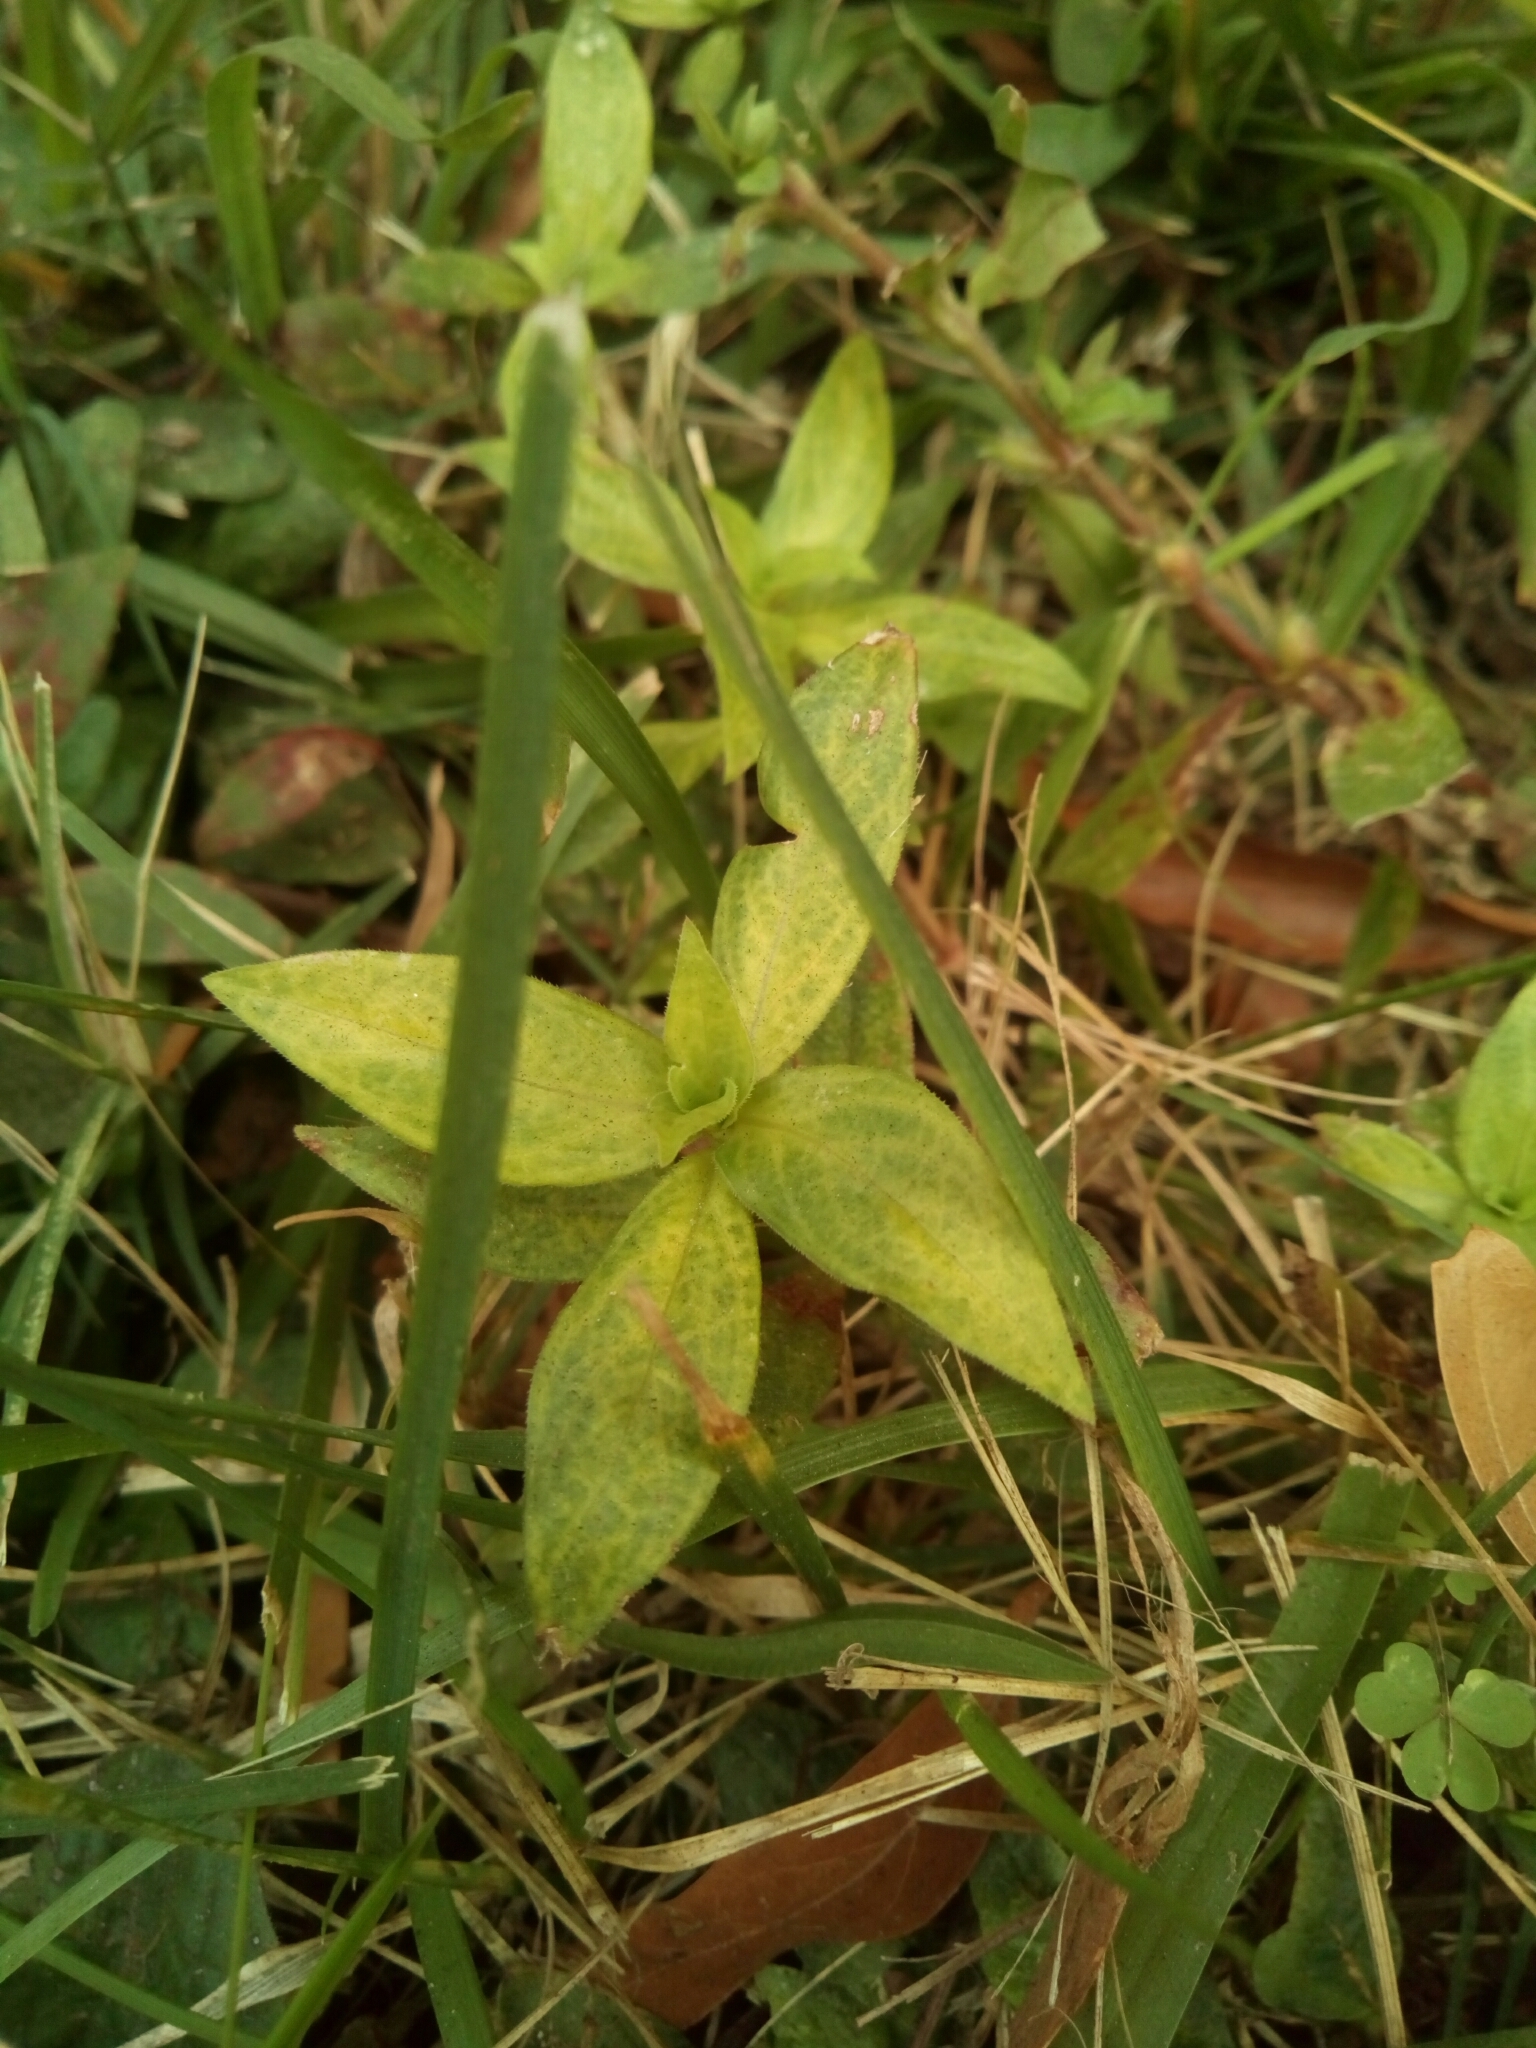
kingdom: Plantae
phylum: Tracheophyta
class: Magnoliopsida
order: Gentianales
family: Rubiaceae
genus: Diodia
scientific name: Diodia virginiana
